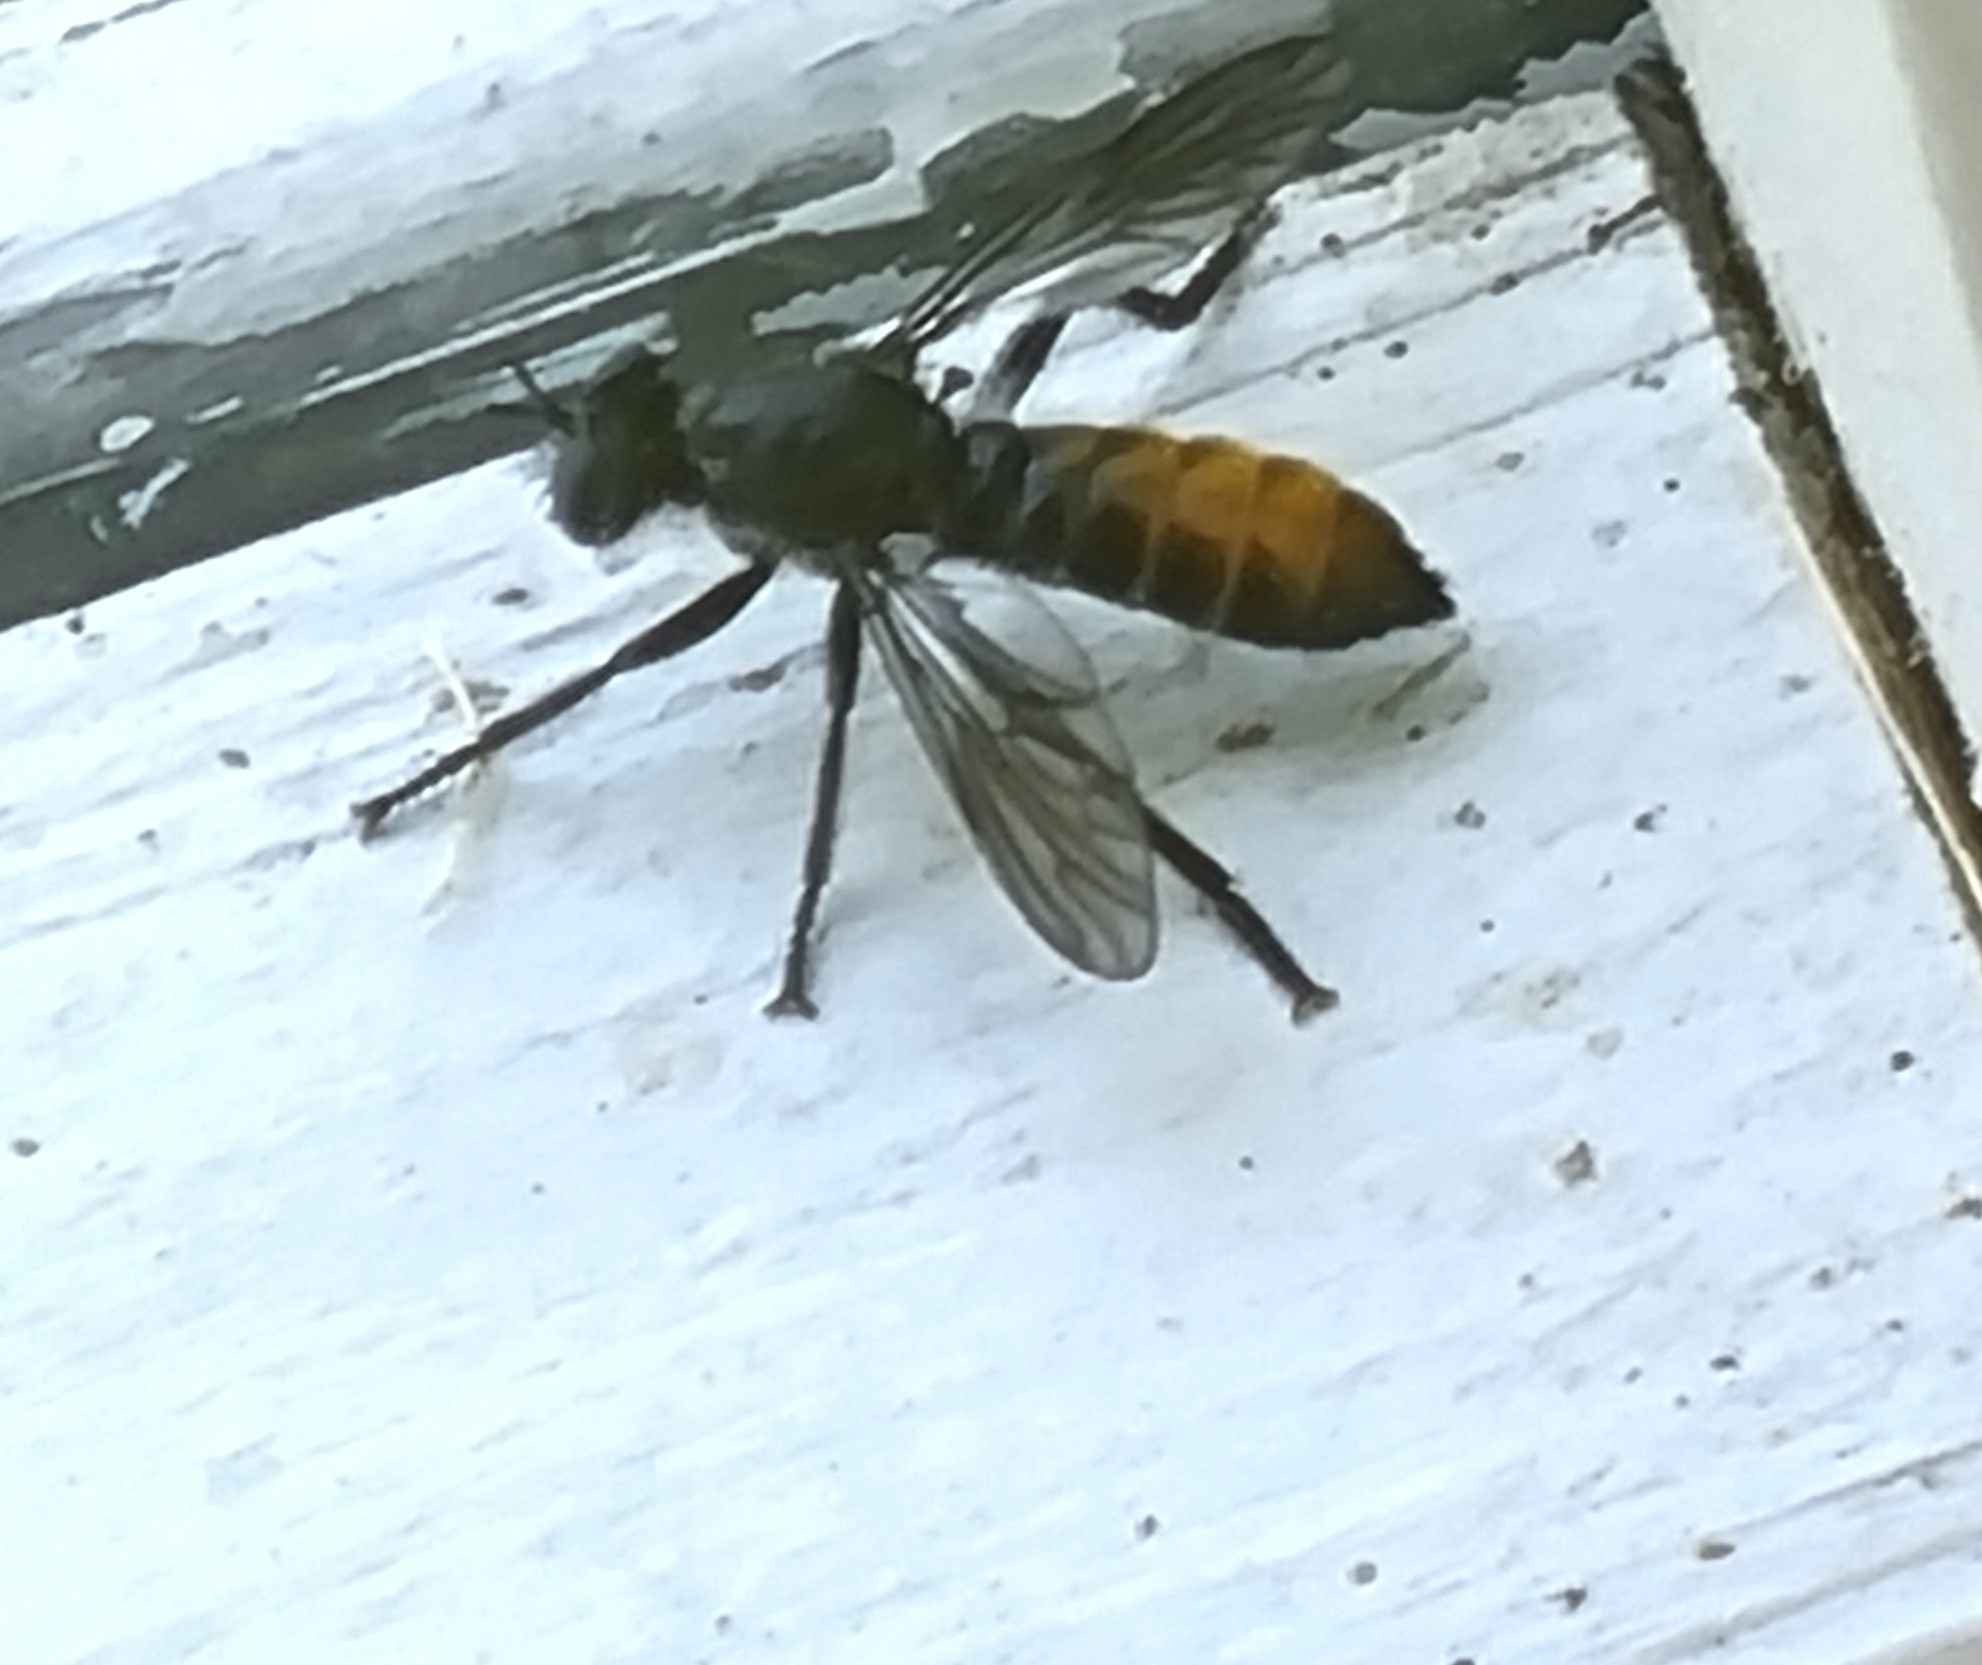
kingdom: Animalia
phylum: Arthropoda
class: Insecta
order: Diptera
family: Asilidae
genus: Laphria
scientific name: Laphria gilva
